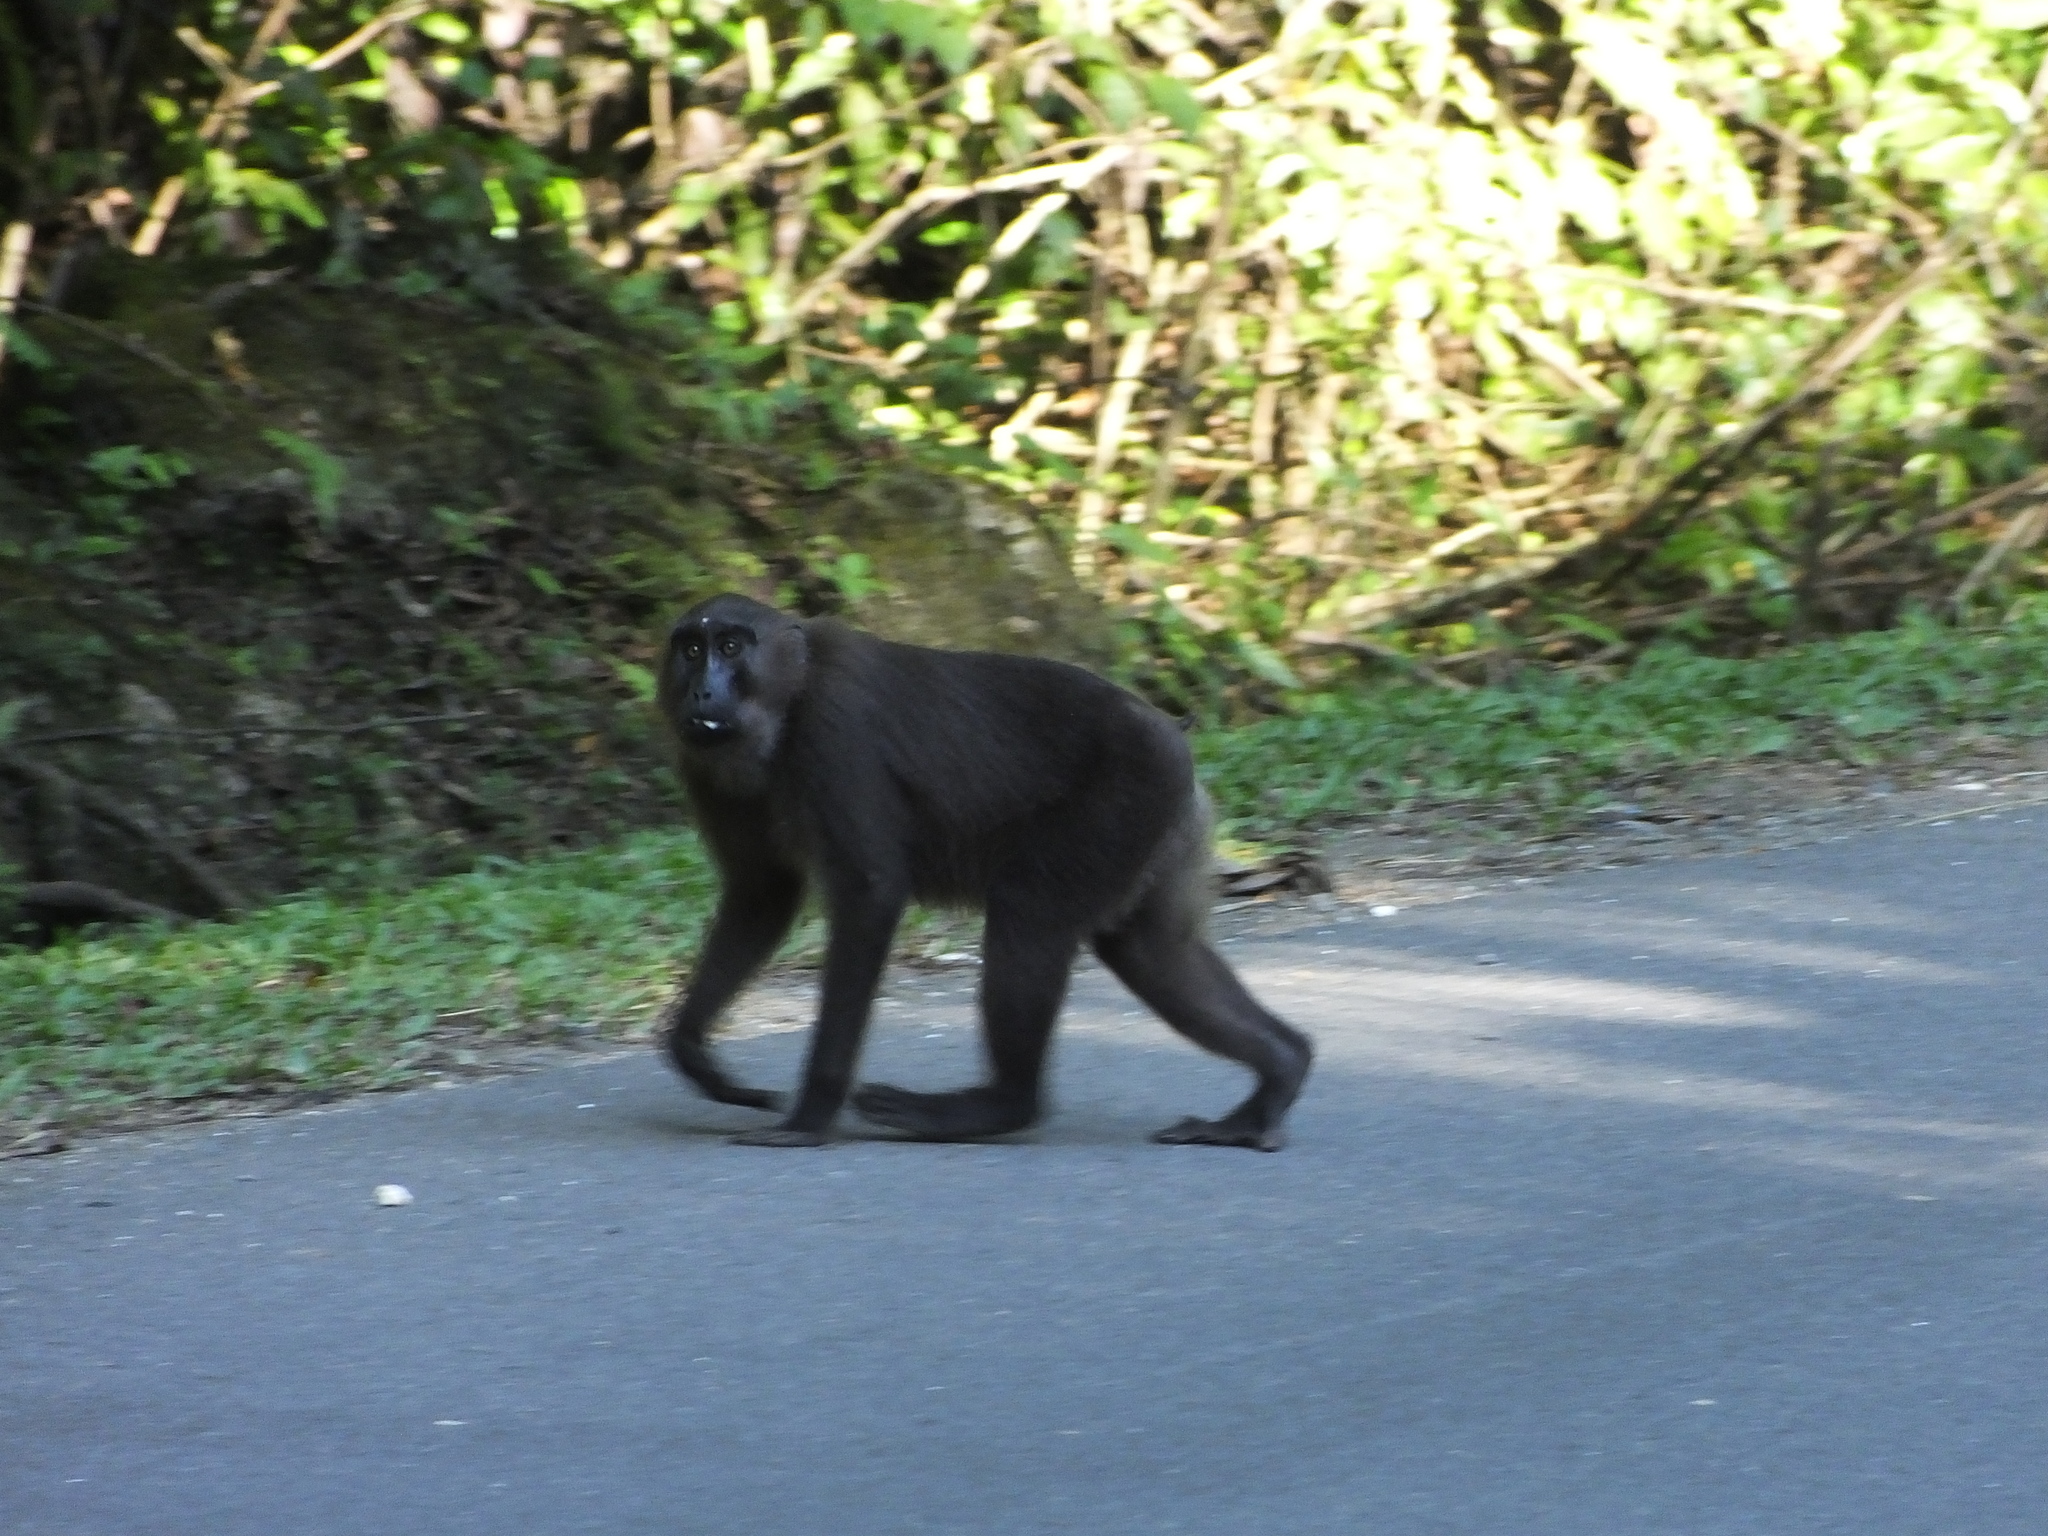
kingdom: Animalia
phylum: Chordata
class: Mammalia
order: Primates
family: Cercopithecidae
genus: Macaca
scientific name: Macaca maura
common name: Moor macaque
